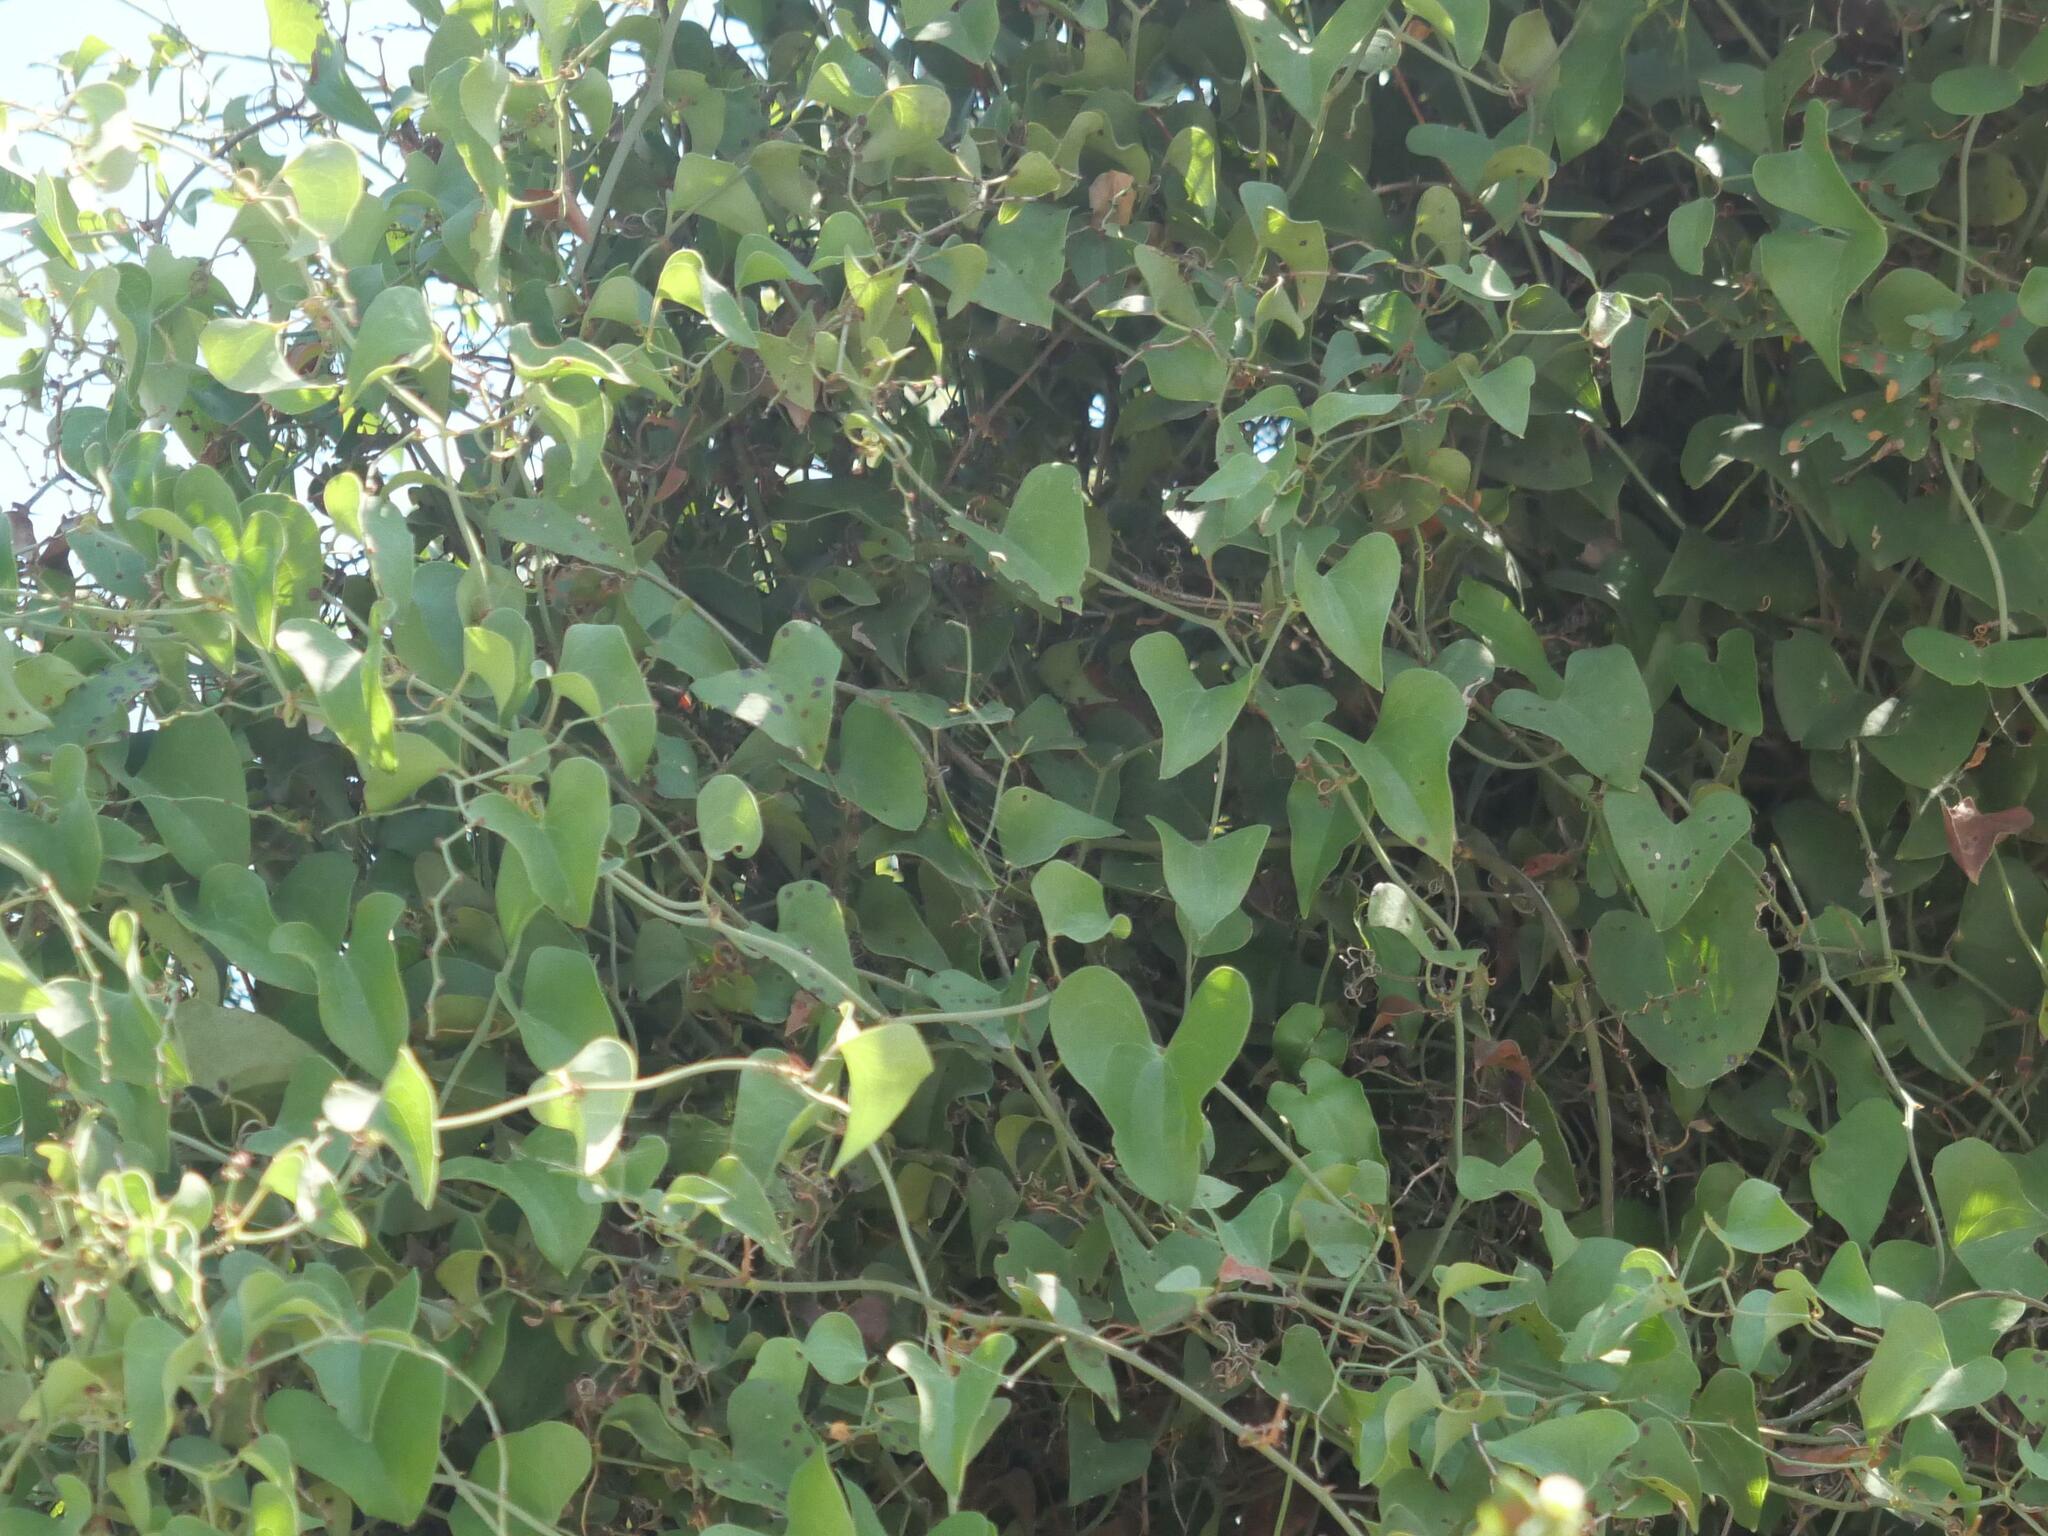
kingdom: Plantae
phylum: Tracheophyta
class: Liliopsida
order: Liliales
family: Smilacaceae
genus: Smilax
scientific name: Smilax aspera
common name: Common smilax
